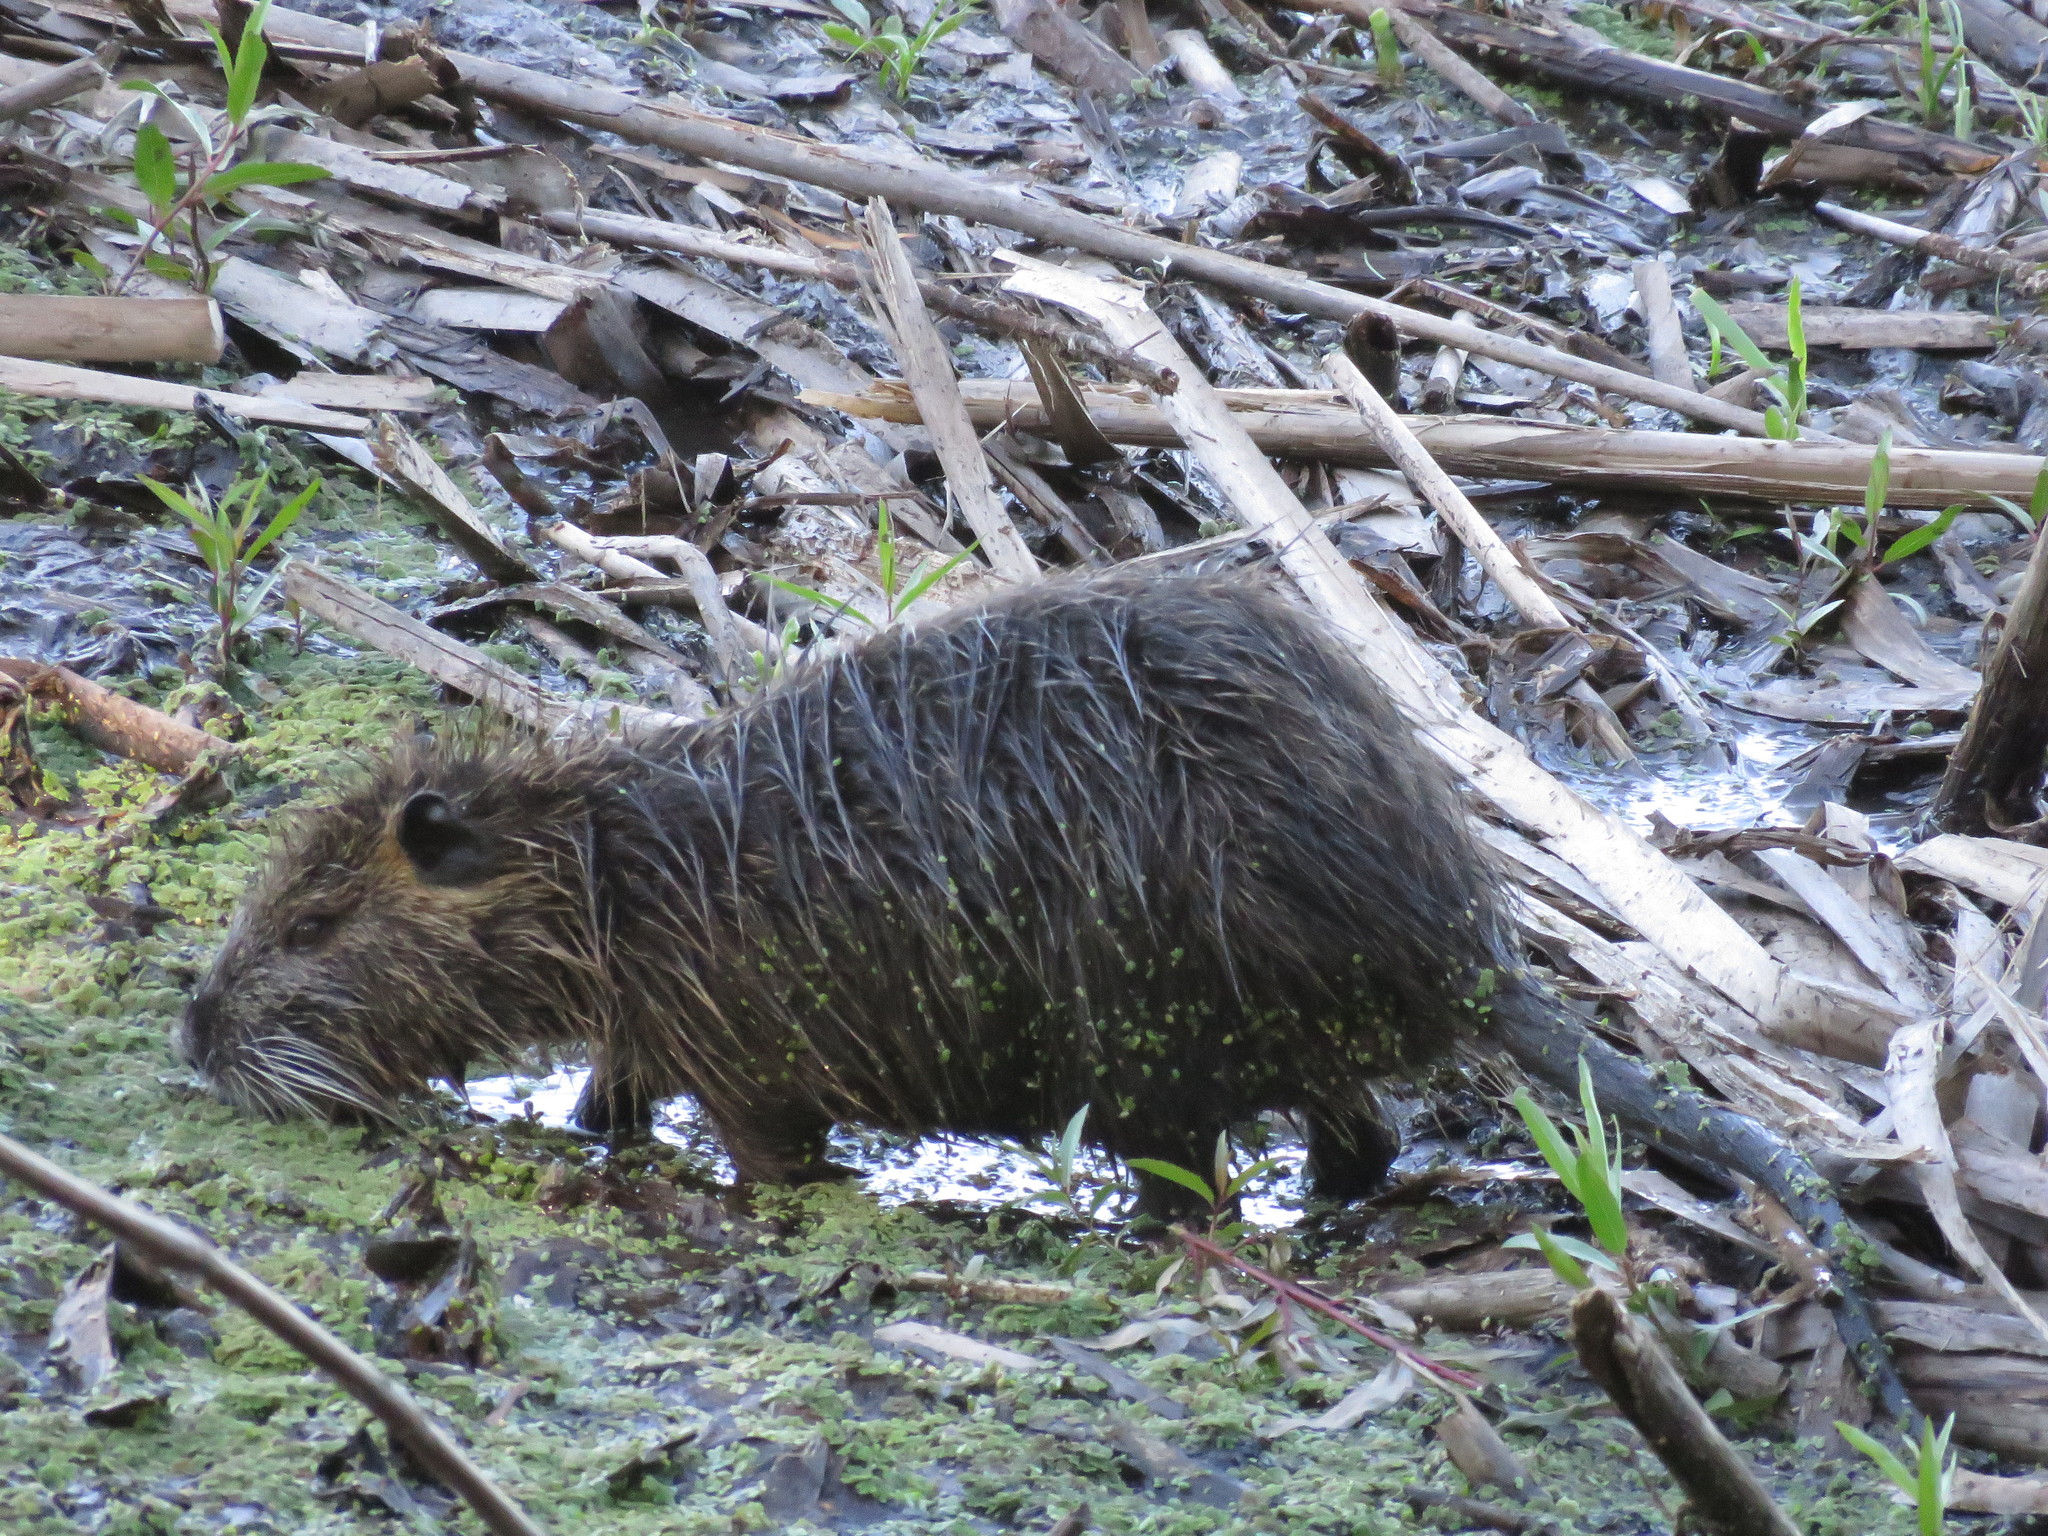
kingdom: Animalia
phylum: Chordata
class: Mammalia
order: Rodentia
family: Myocastoridae
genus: Myocastor
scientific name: Myocastor coypus
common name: Coypu
